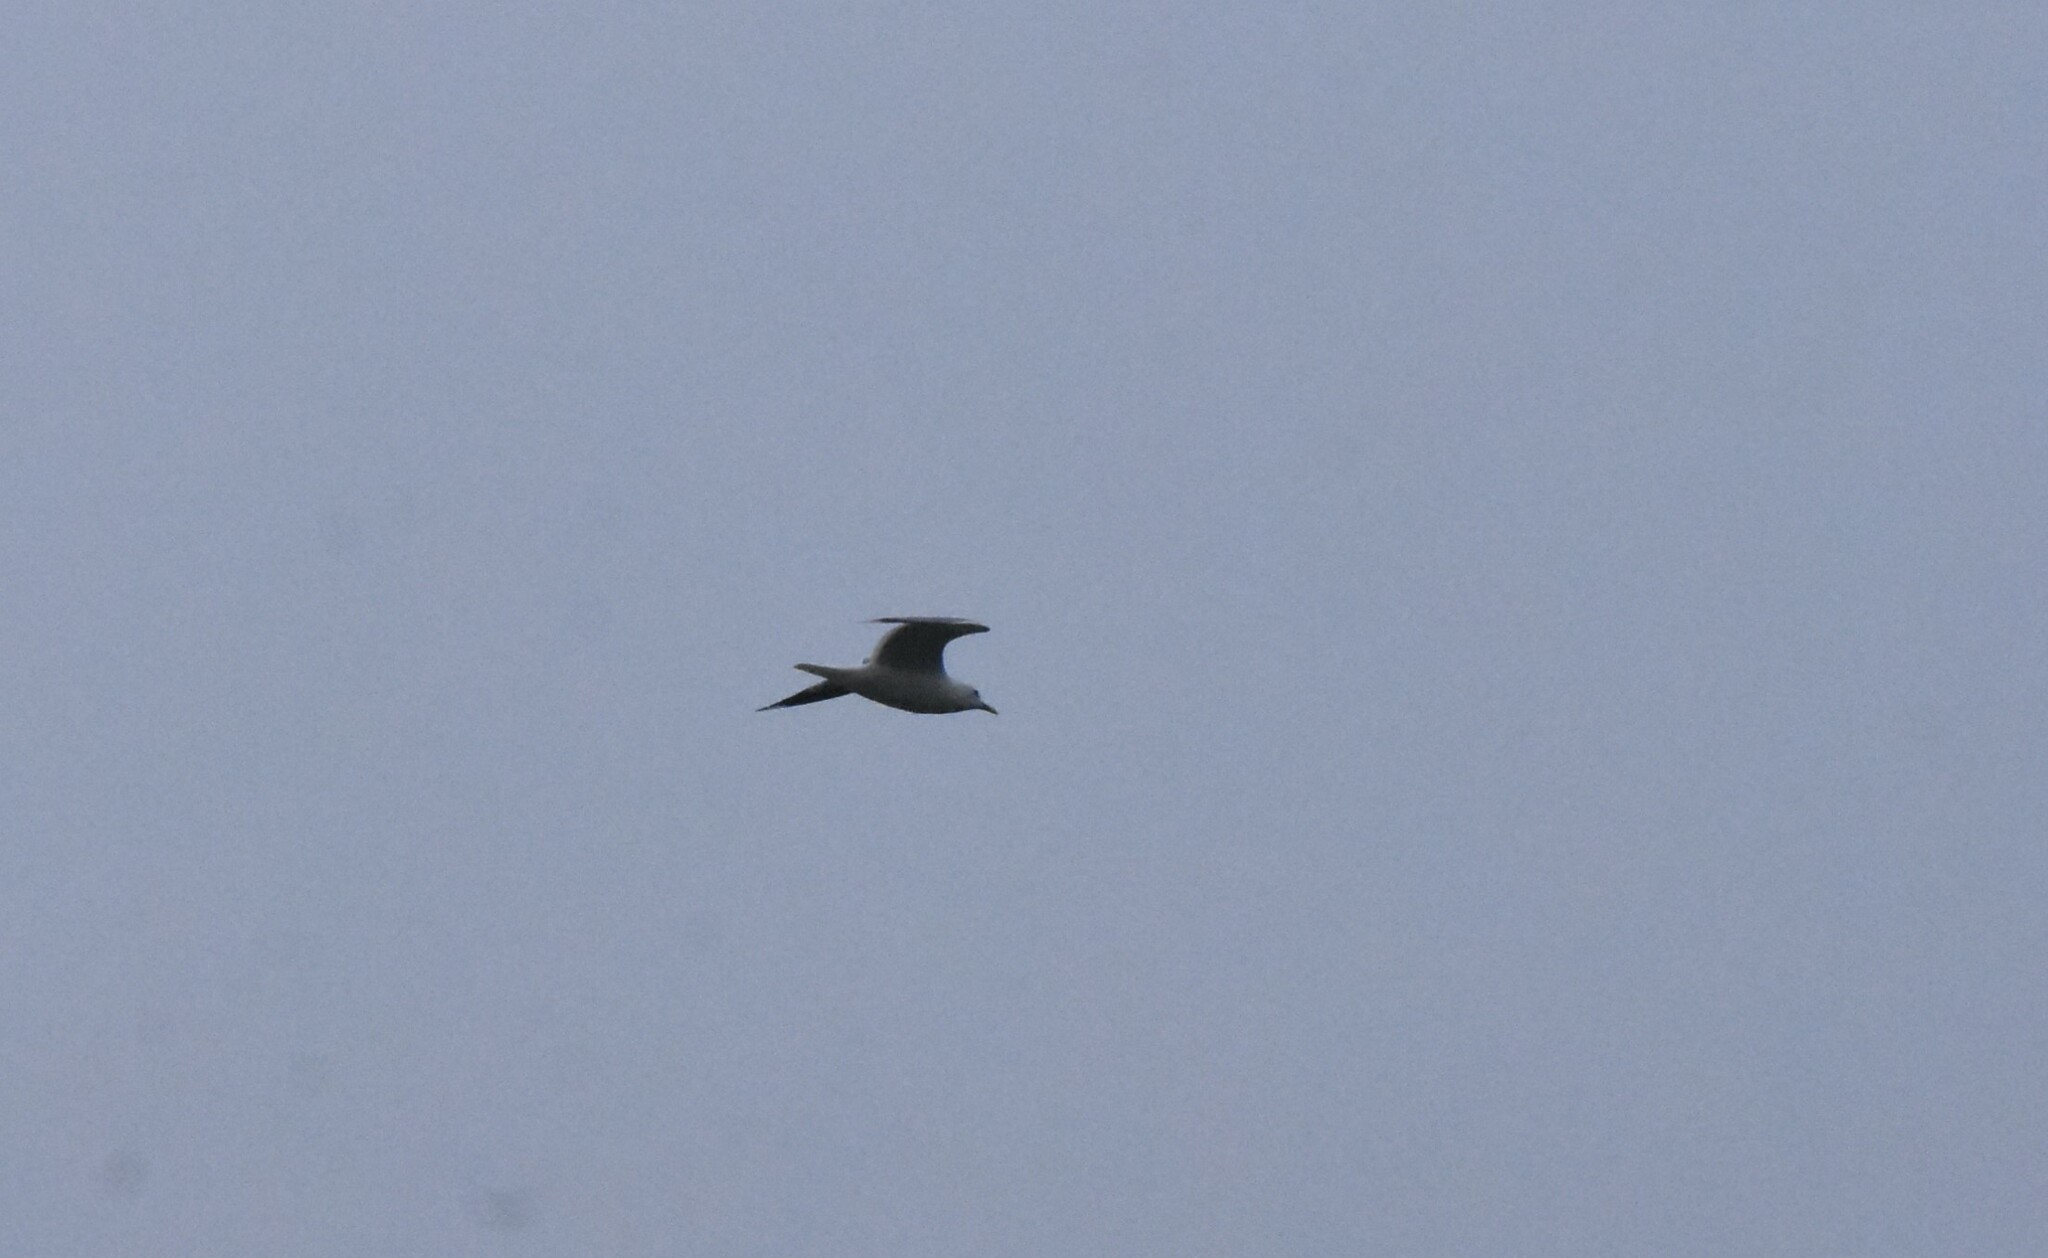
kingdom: Animalia
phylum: Chordata
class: Aves
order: Charadriiformes
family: Laridae
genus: Larus
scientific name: Larus canus
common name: Mew gull
